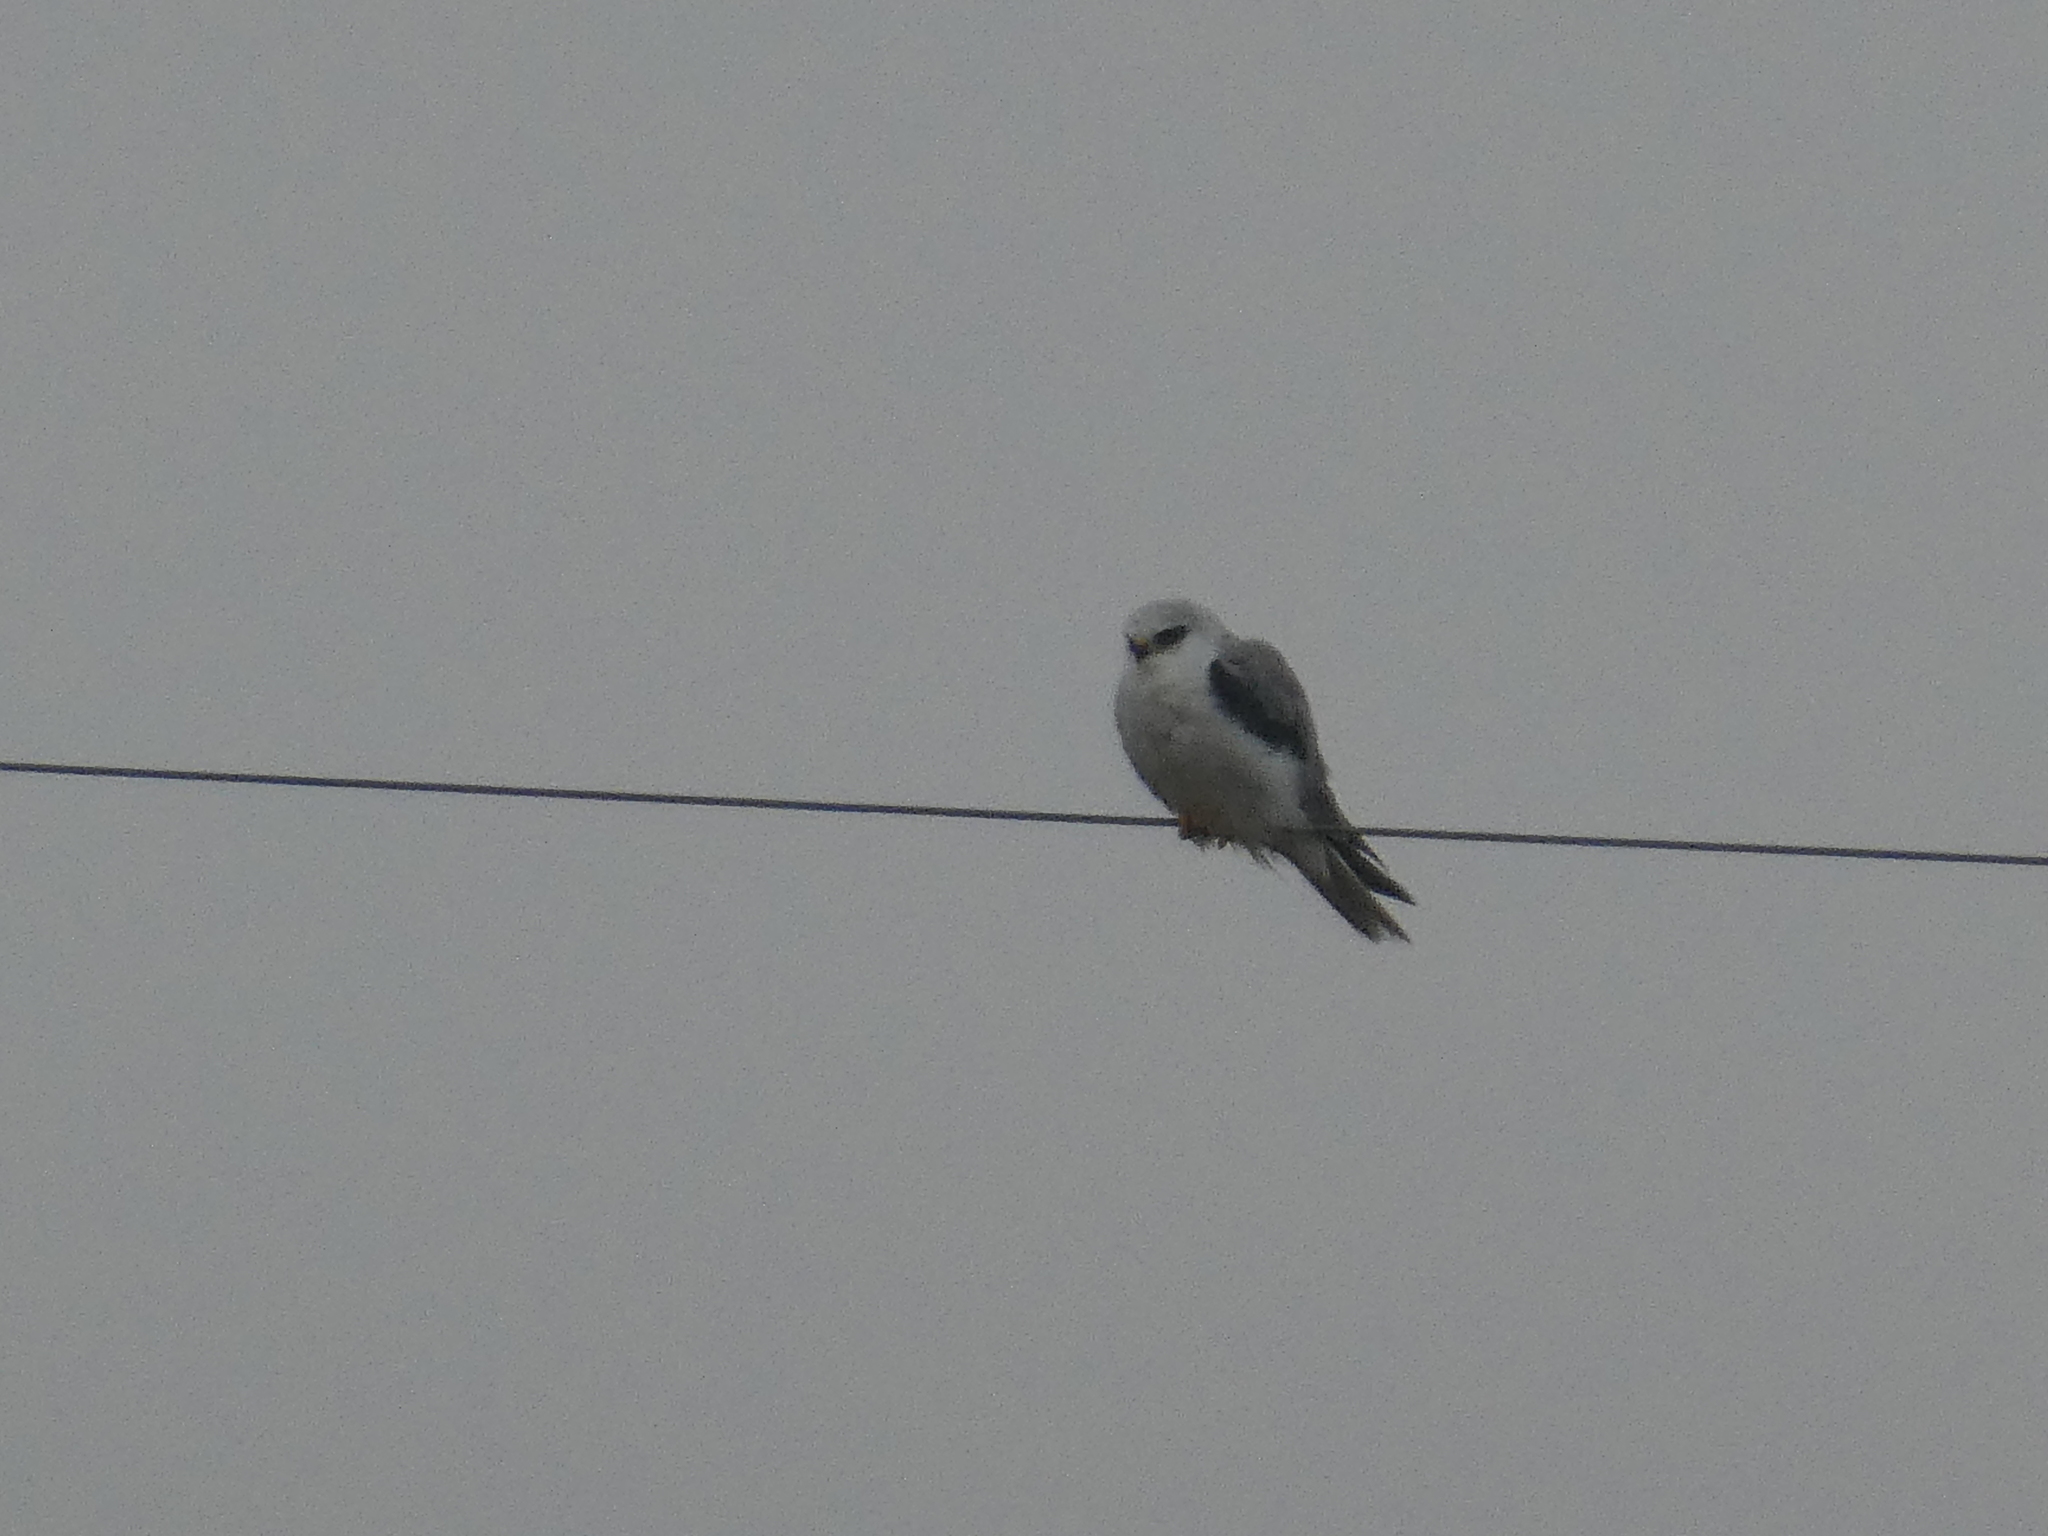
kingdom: Animalia
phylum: Chordata
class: Aves
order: Accipitriformes
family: Accipitridae
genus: Elanus
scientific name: Elanus leucurus
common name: White-tailed kite
